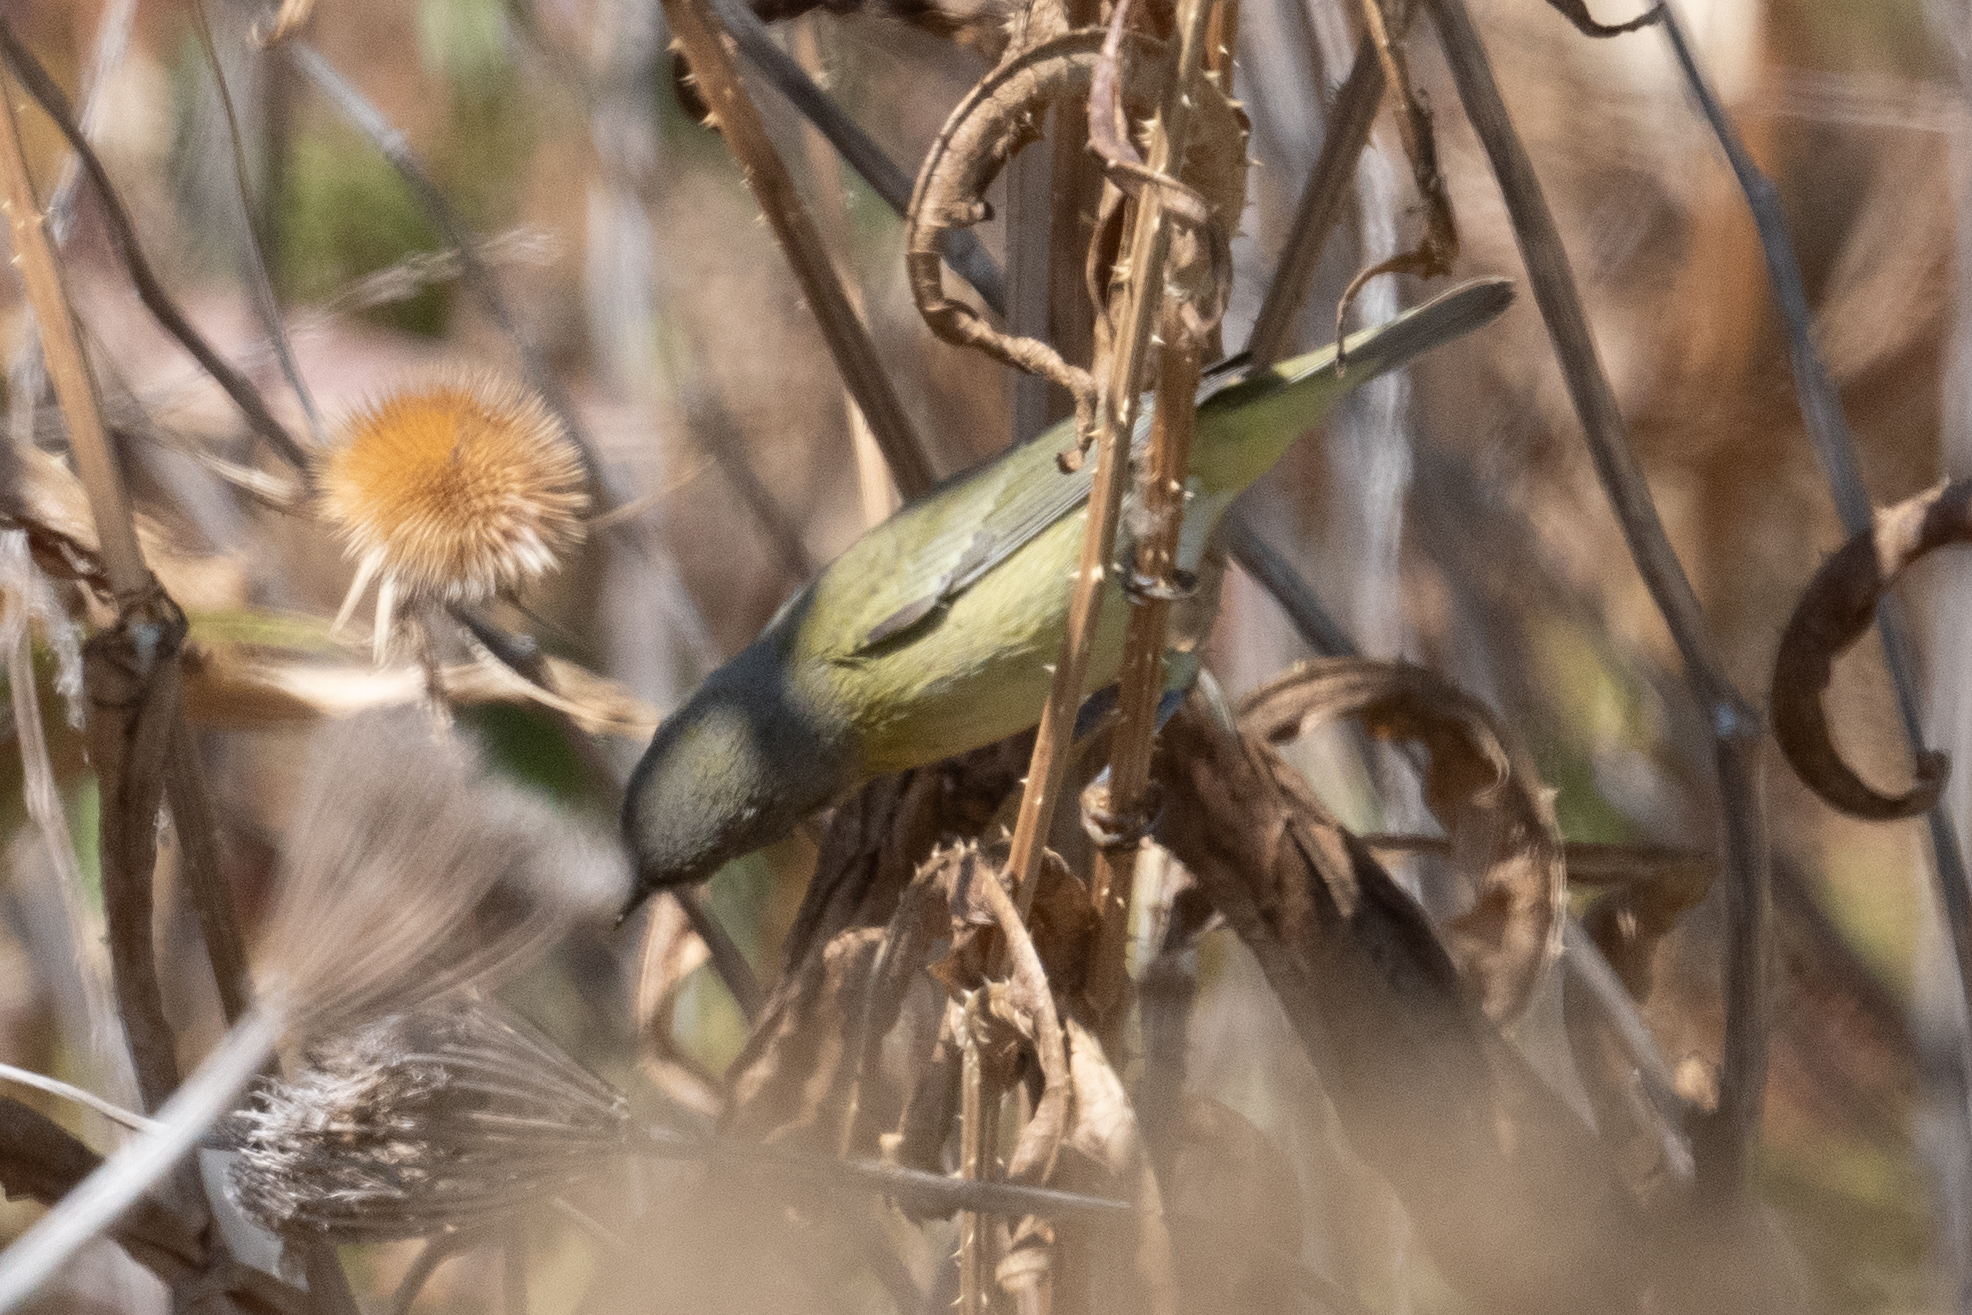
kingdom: Animalia
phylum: Chordata
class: Aves
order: Passeriformes
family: Parulidae
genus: Leiothlypis
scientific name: Leiothlypis celata
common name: Orange-crowned warbler
